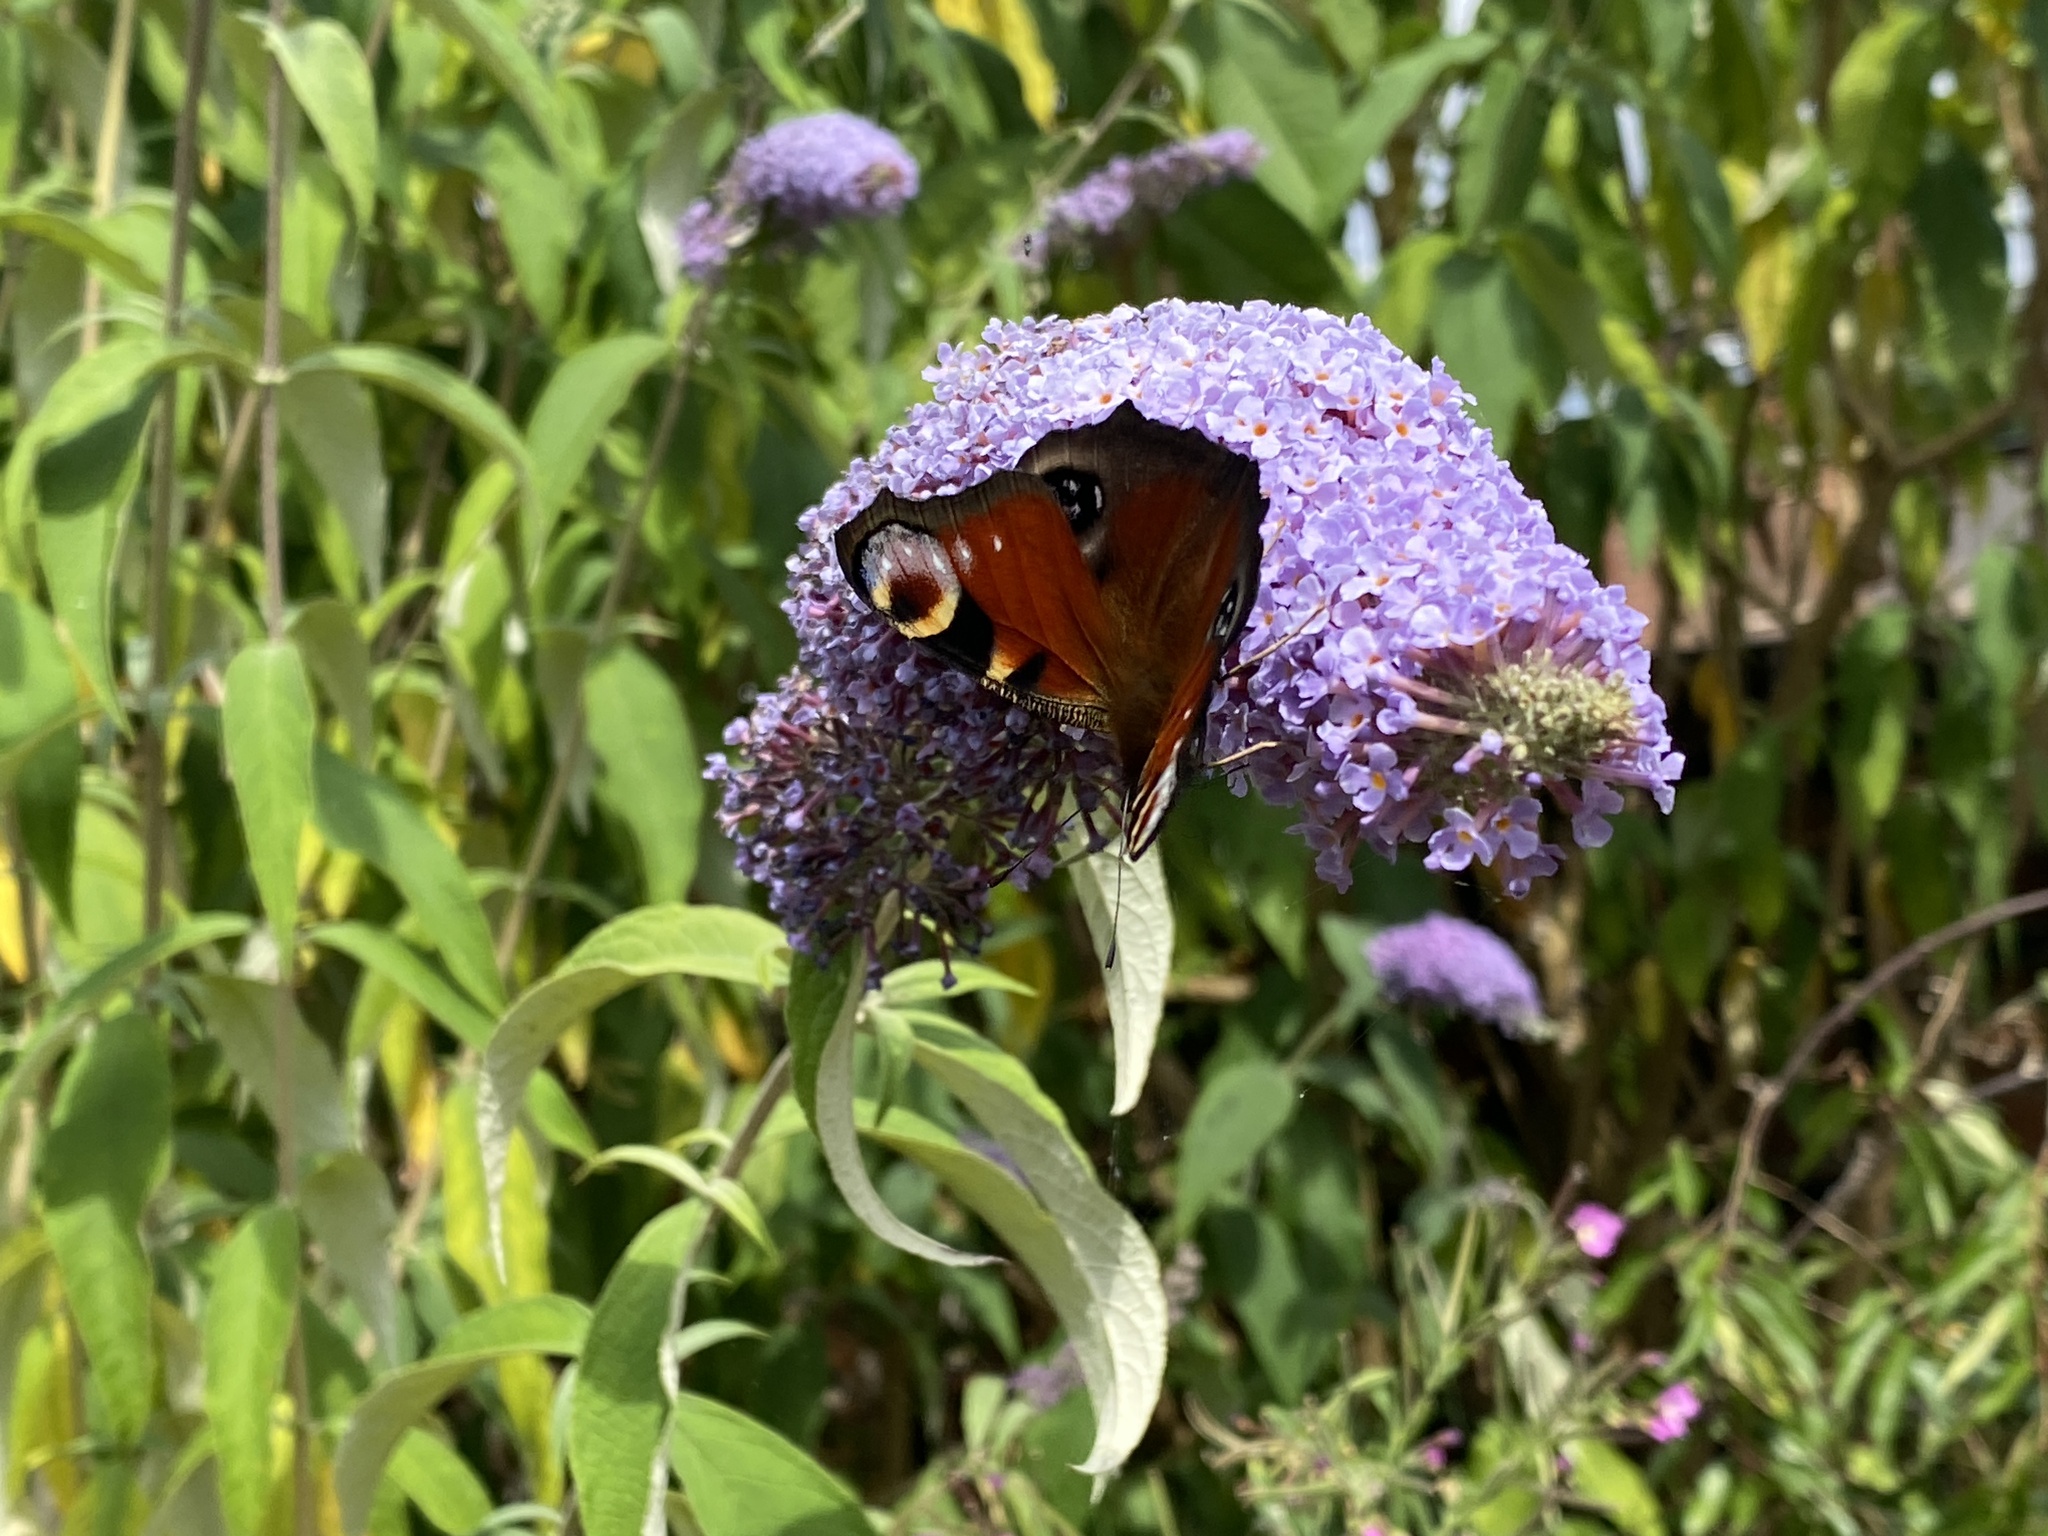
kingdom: Animalia
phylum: Arthropoda
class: Insecta
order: Lepidoptera
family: Nymphalidae
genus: Aglais
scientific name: Aglais io
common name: Peacock
